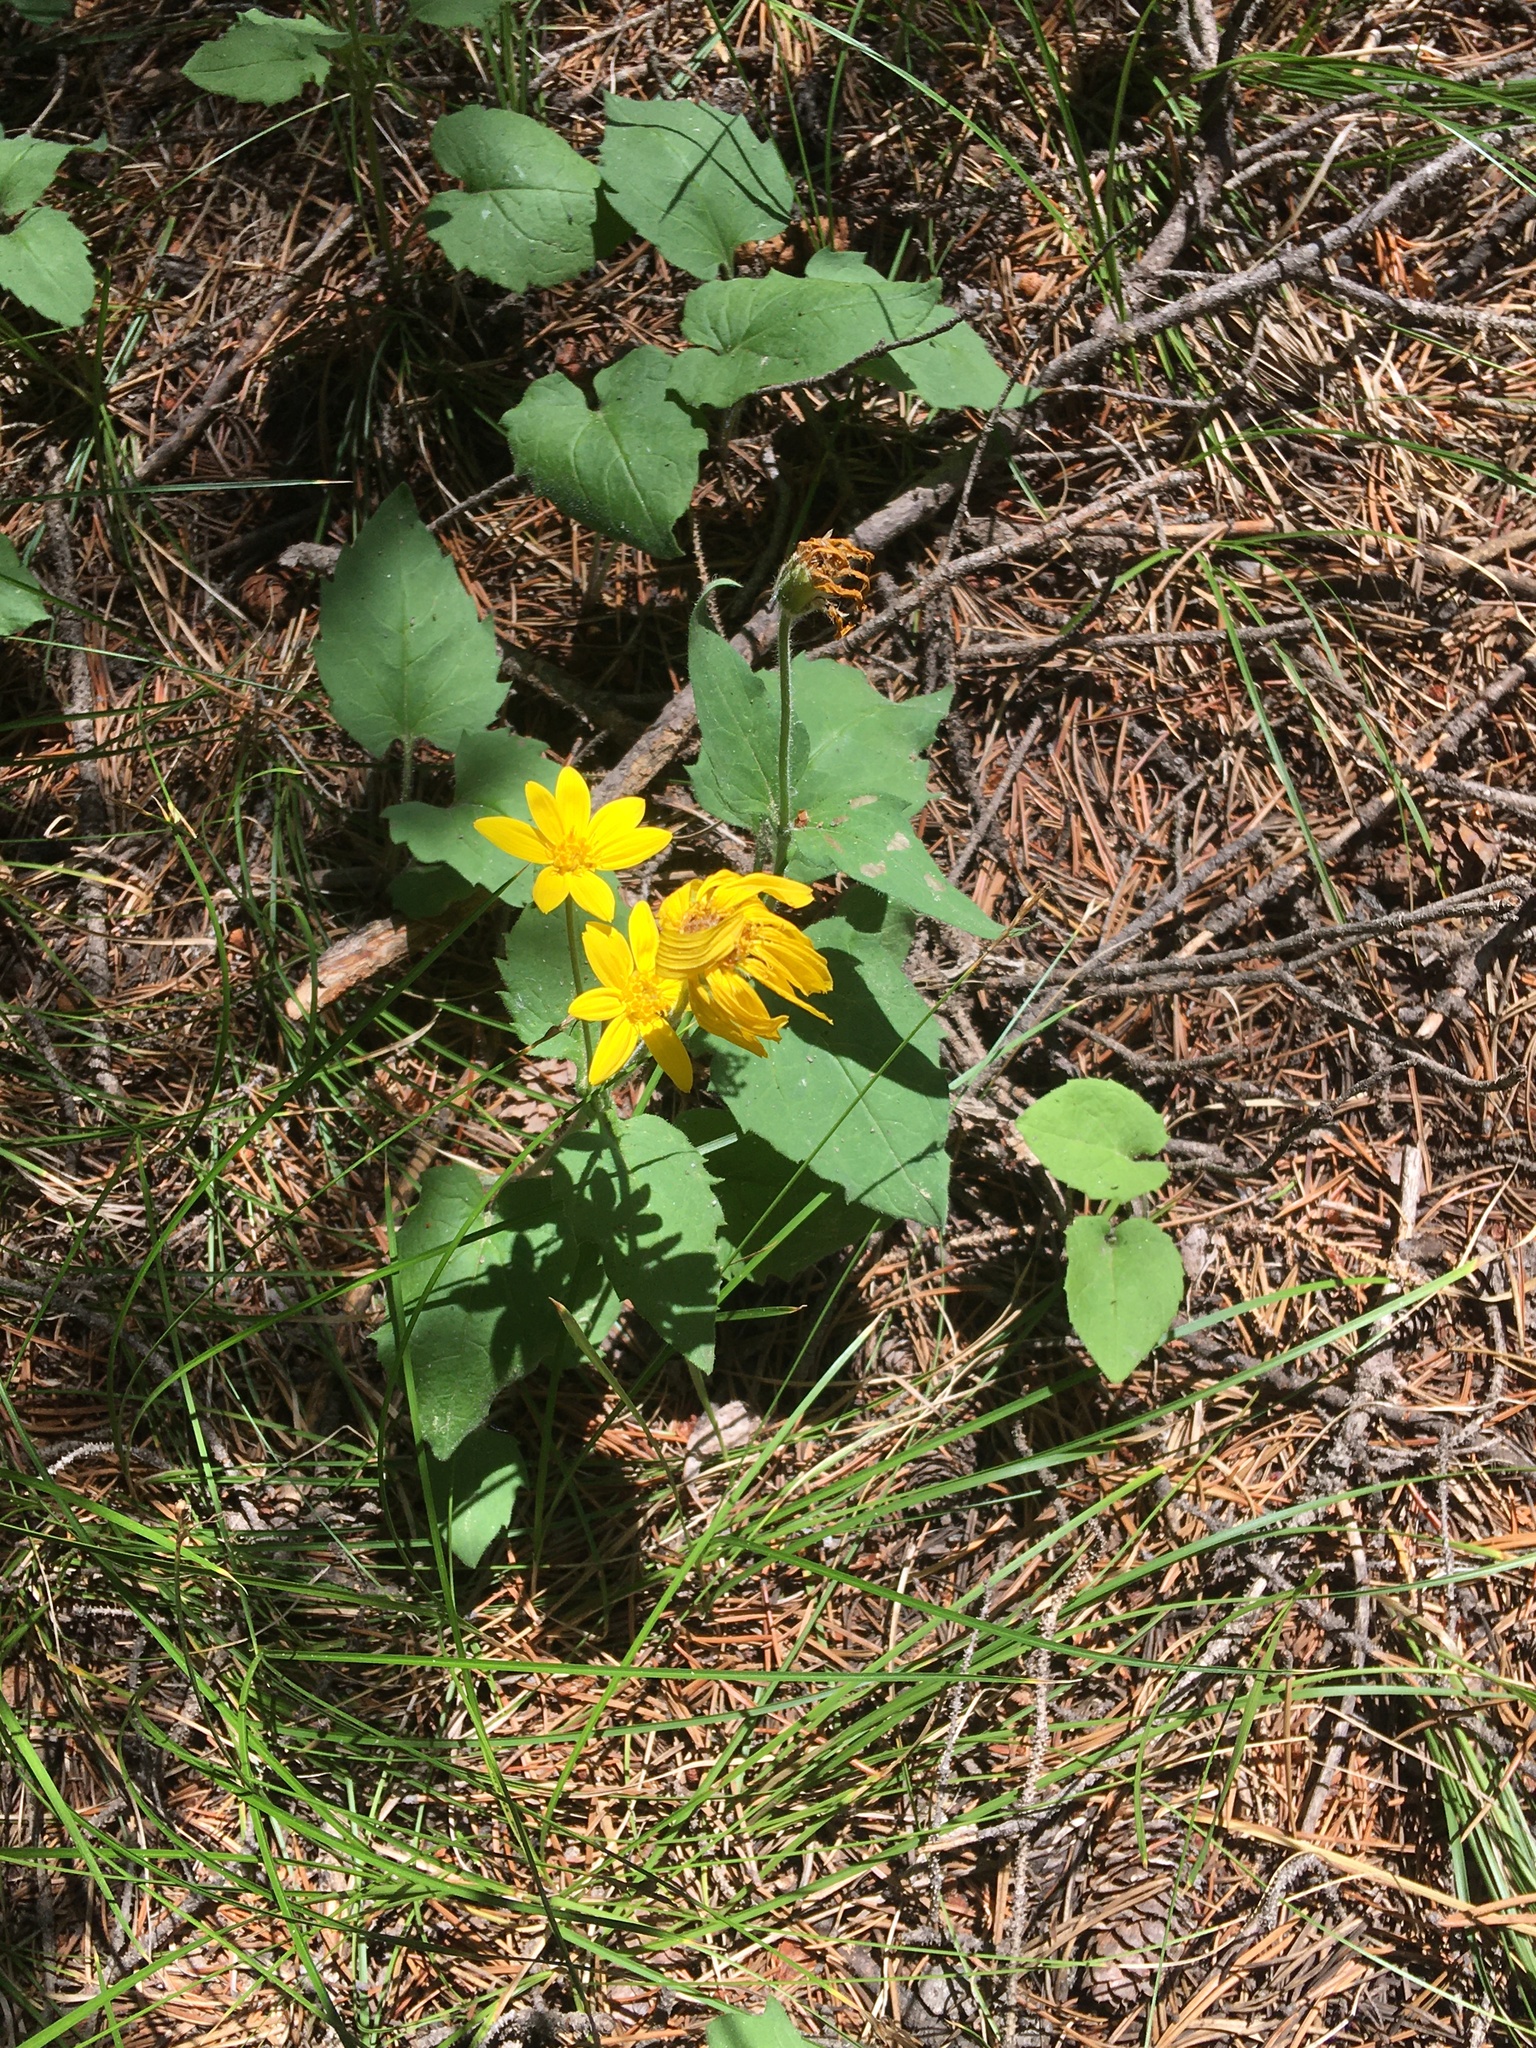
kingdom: Plantae
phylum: Tracheophyta
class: Magnoliopsida
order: Asterales
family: Asteraceae
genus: Arnica
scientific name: Arnica cordifolia
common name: Heart-leaf arnica
